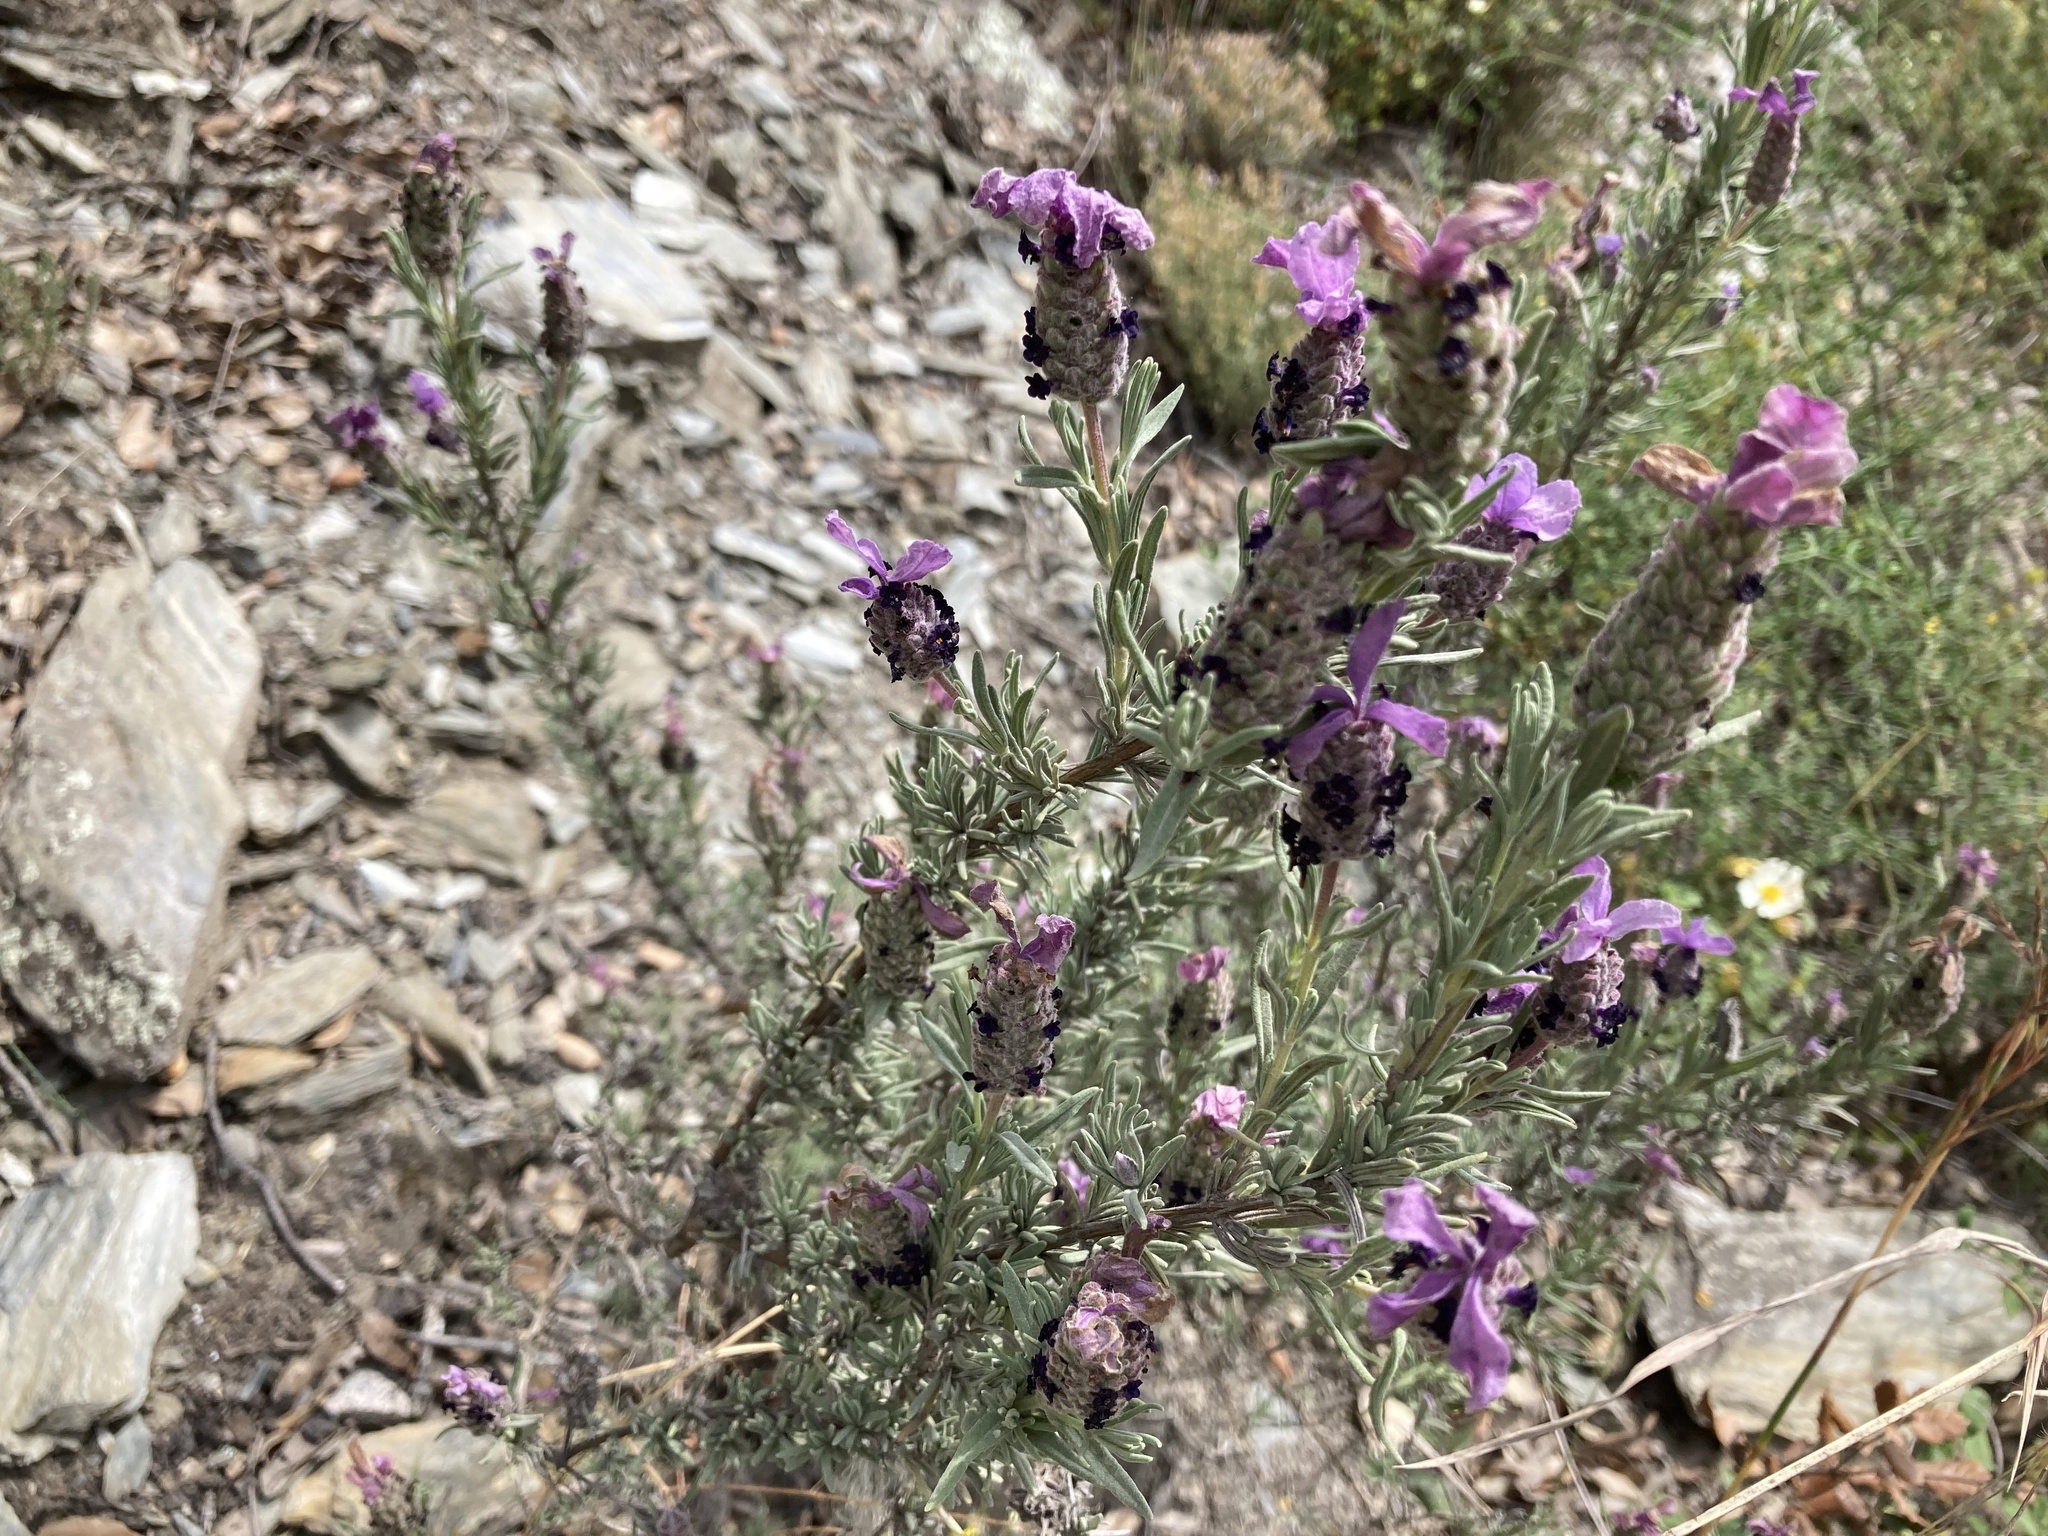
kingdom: Plantae
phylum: Tracheophyta
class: Magnoliopsida
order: Lamiales
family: Lamiaceae
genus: Lavandula
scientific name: Lavandula stoechas
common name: French lavender
